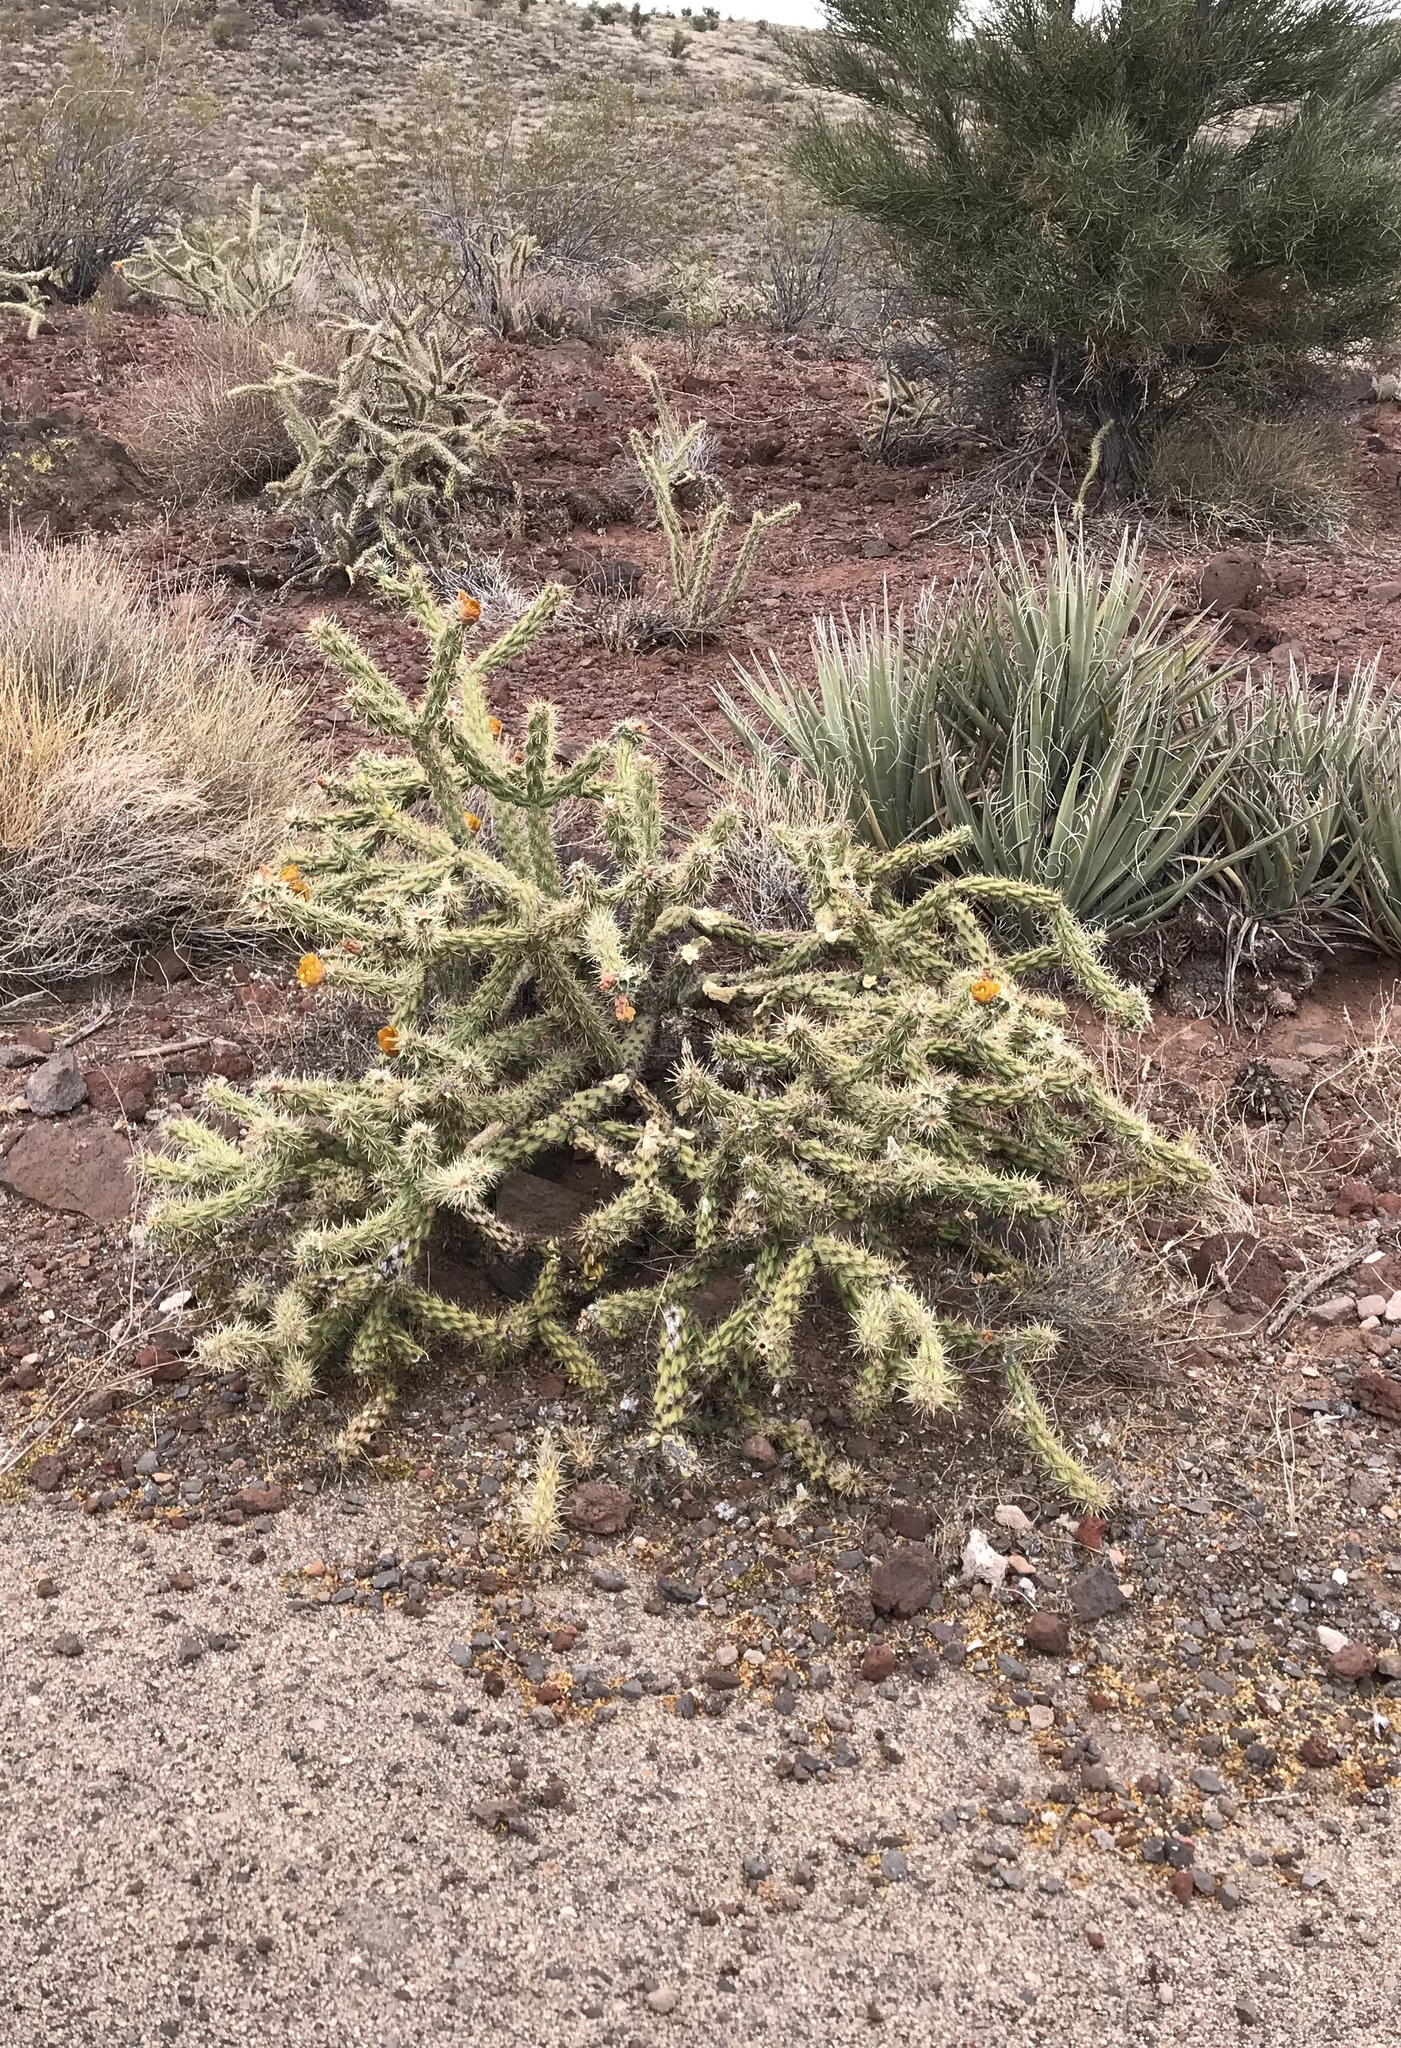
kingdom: Plantae
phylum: Tracheophyta
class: Magnoliopsida
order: Caryophyllales
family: Cactaceae
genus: Cylindropuntia
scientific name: Cylindropuntia acanthocarpa
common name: Buckhorn cholla
